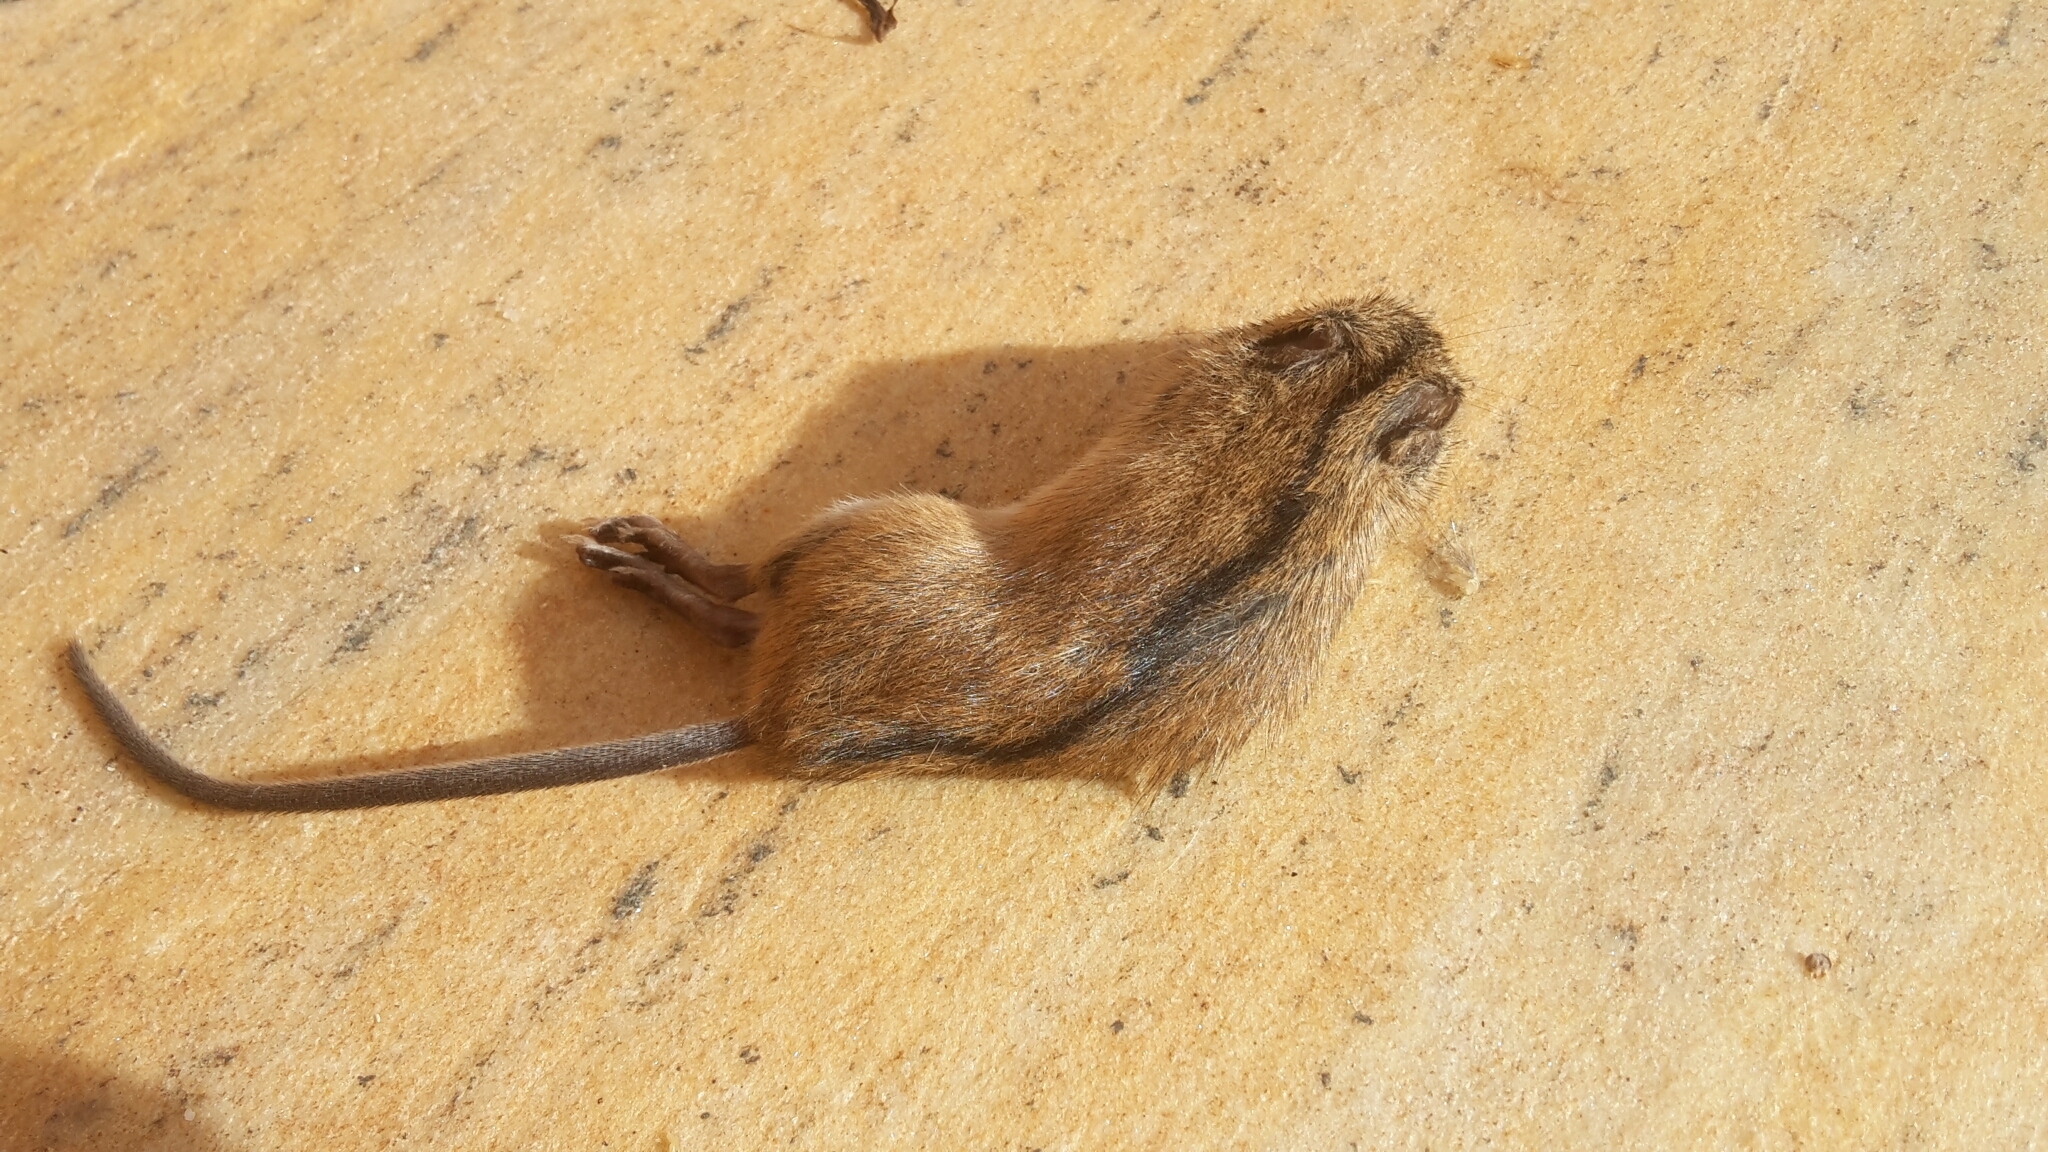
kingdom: Animalia
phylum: Chordata
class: Mammalia
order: Rodentia
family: Muridae
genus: Apodemus
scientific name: Apodemus agrarius
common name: Striped field mouse
